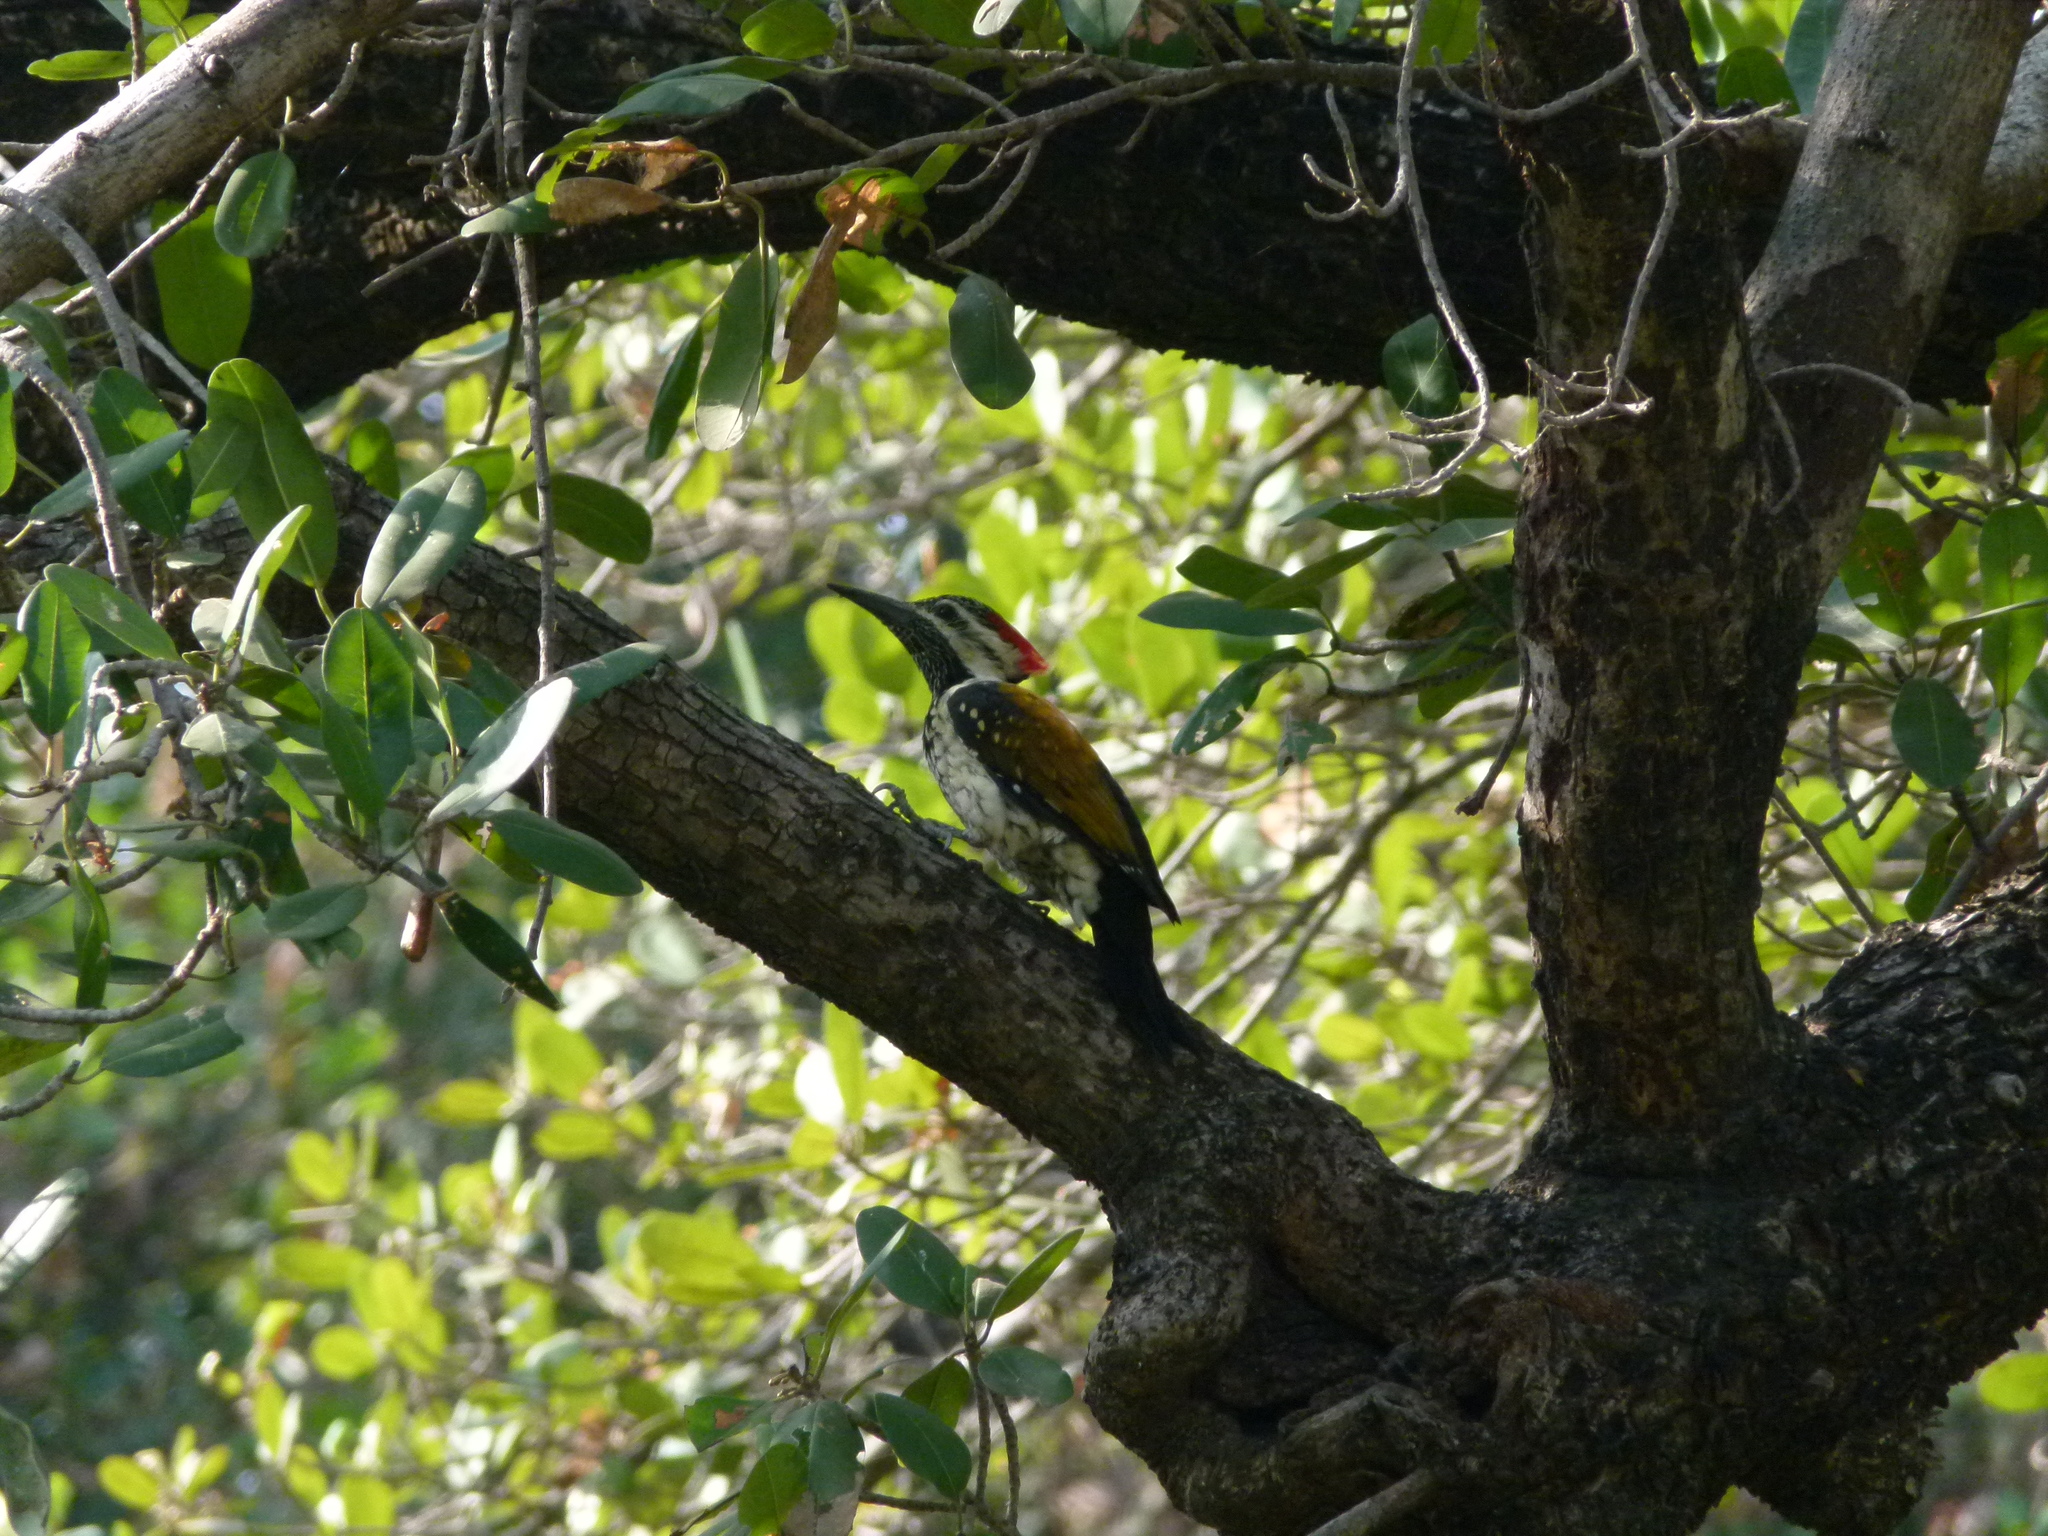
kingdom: Animalia
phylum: Chordata
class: Aves
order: Piciformes
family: Picidae
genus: Dinopium
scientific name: Dinopium benghalense
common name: Black-rumped flameback
